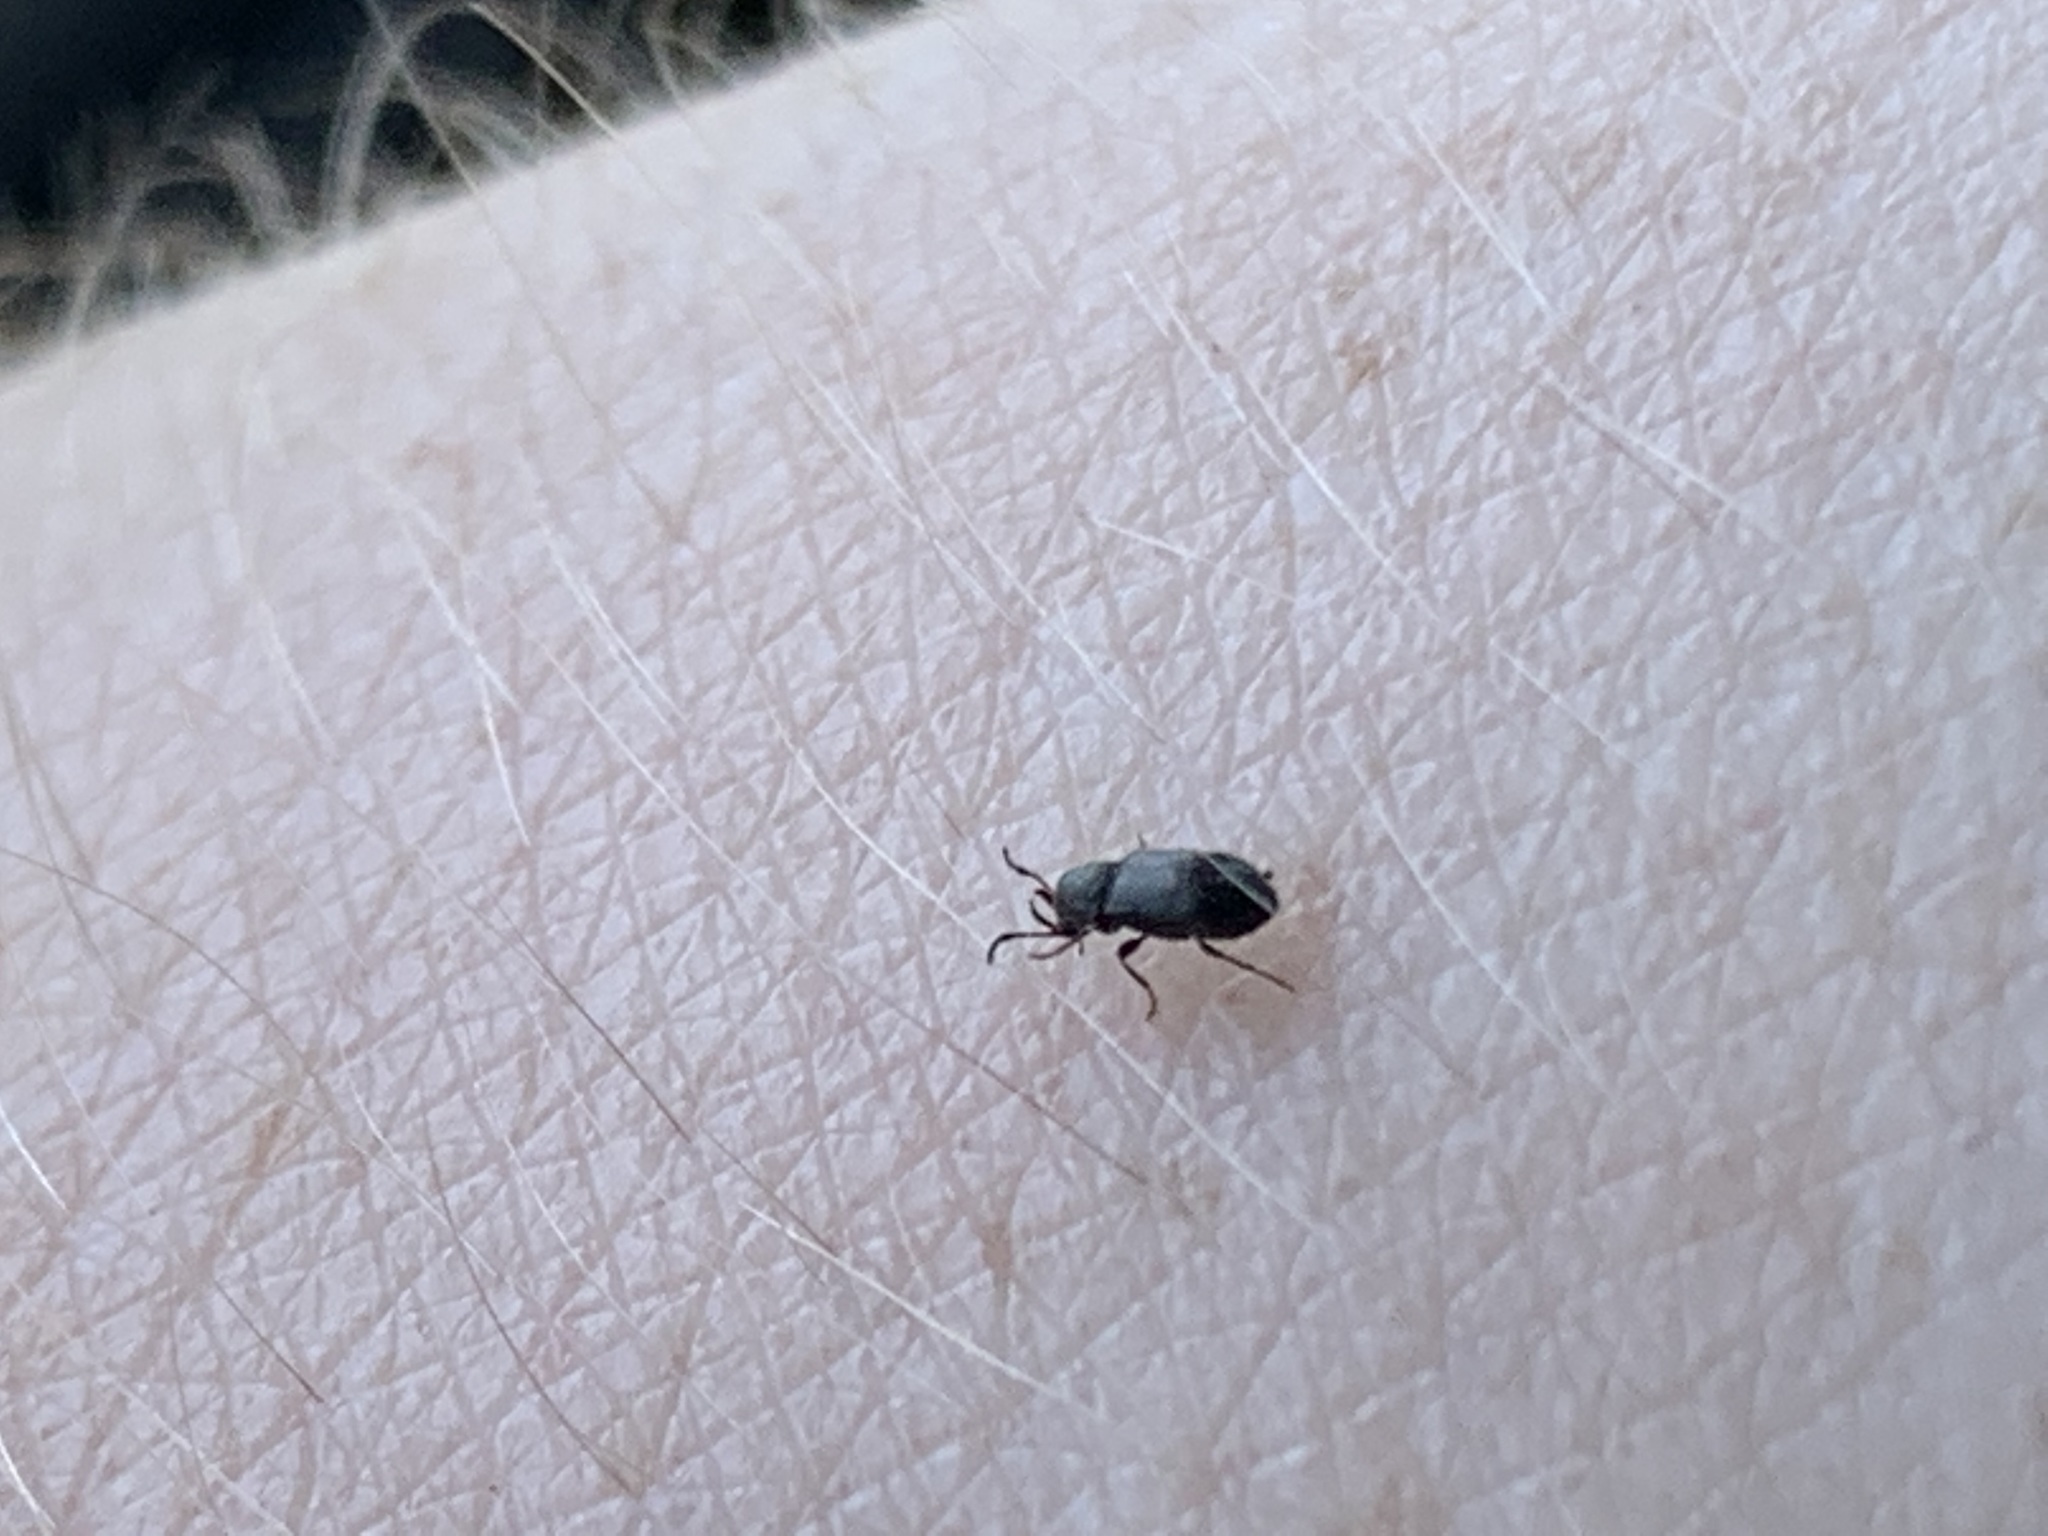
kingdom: Animalia
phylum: Arthropoda
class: Insecta
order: Coleoptera
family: Anobiidae
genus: Ozognathus
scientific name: Ozognathus cornutus
